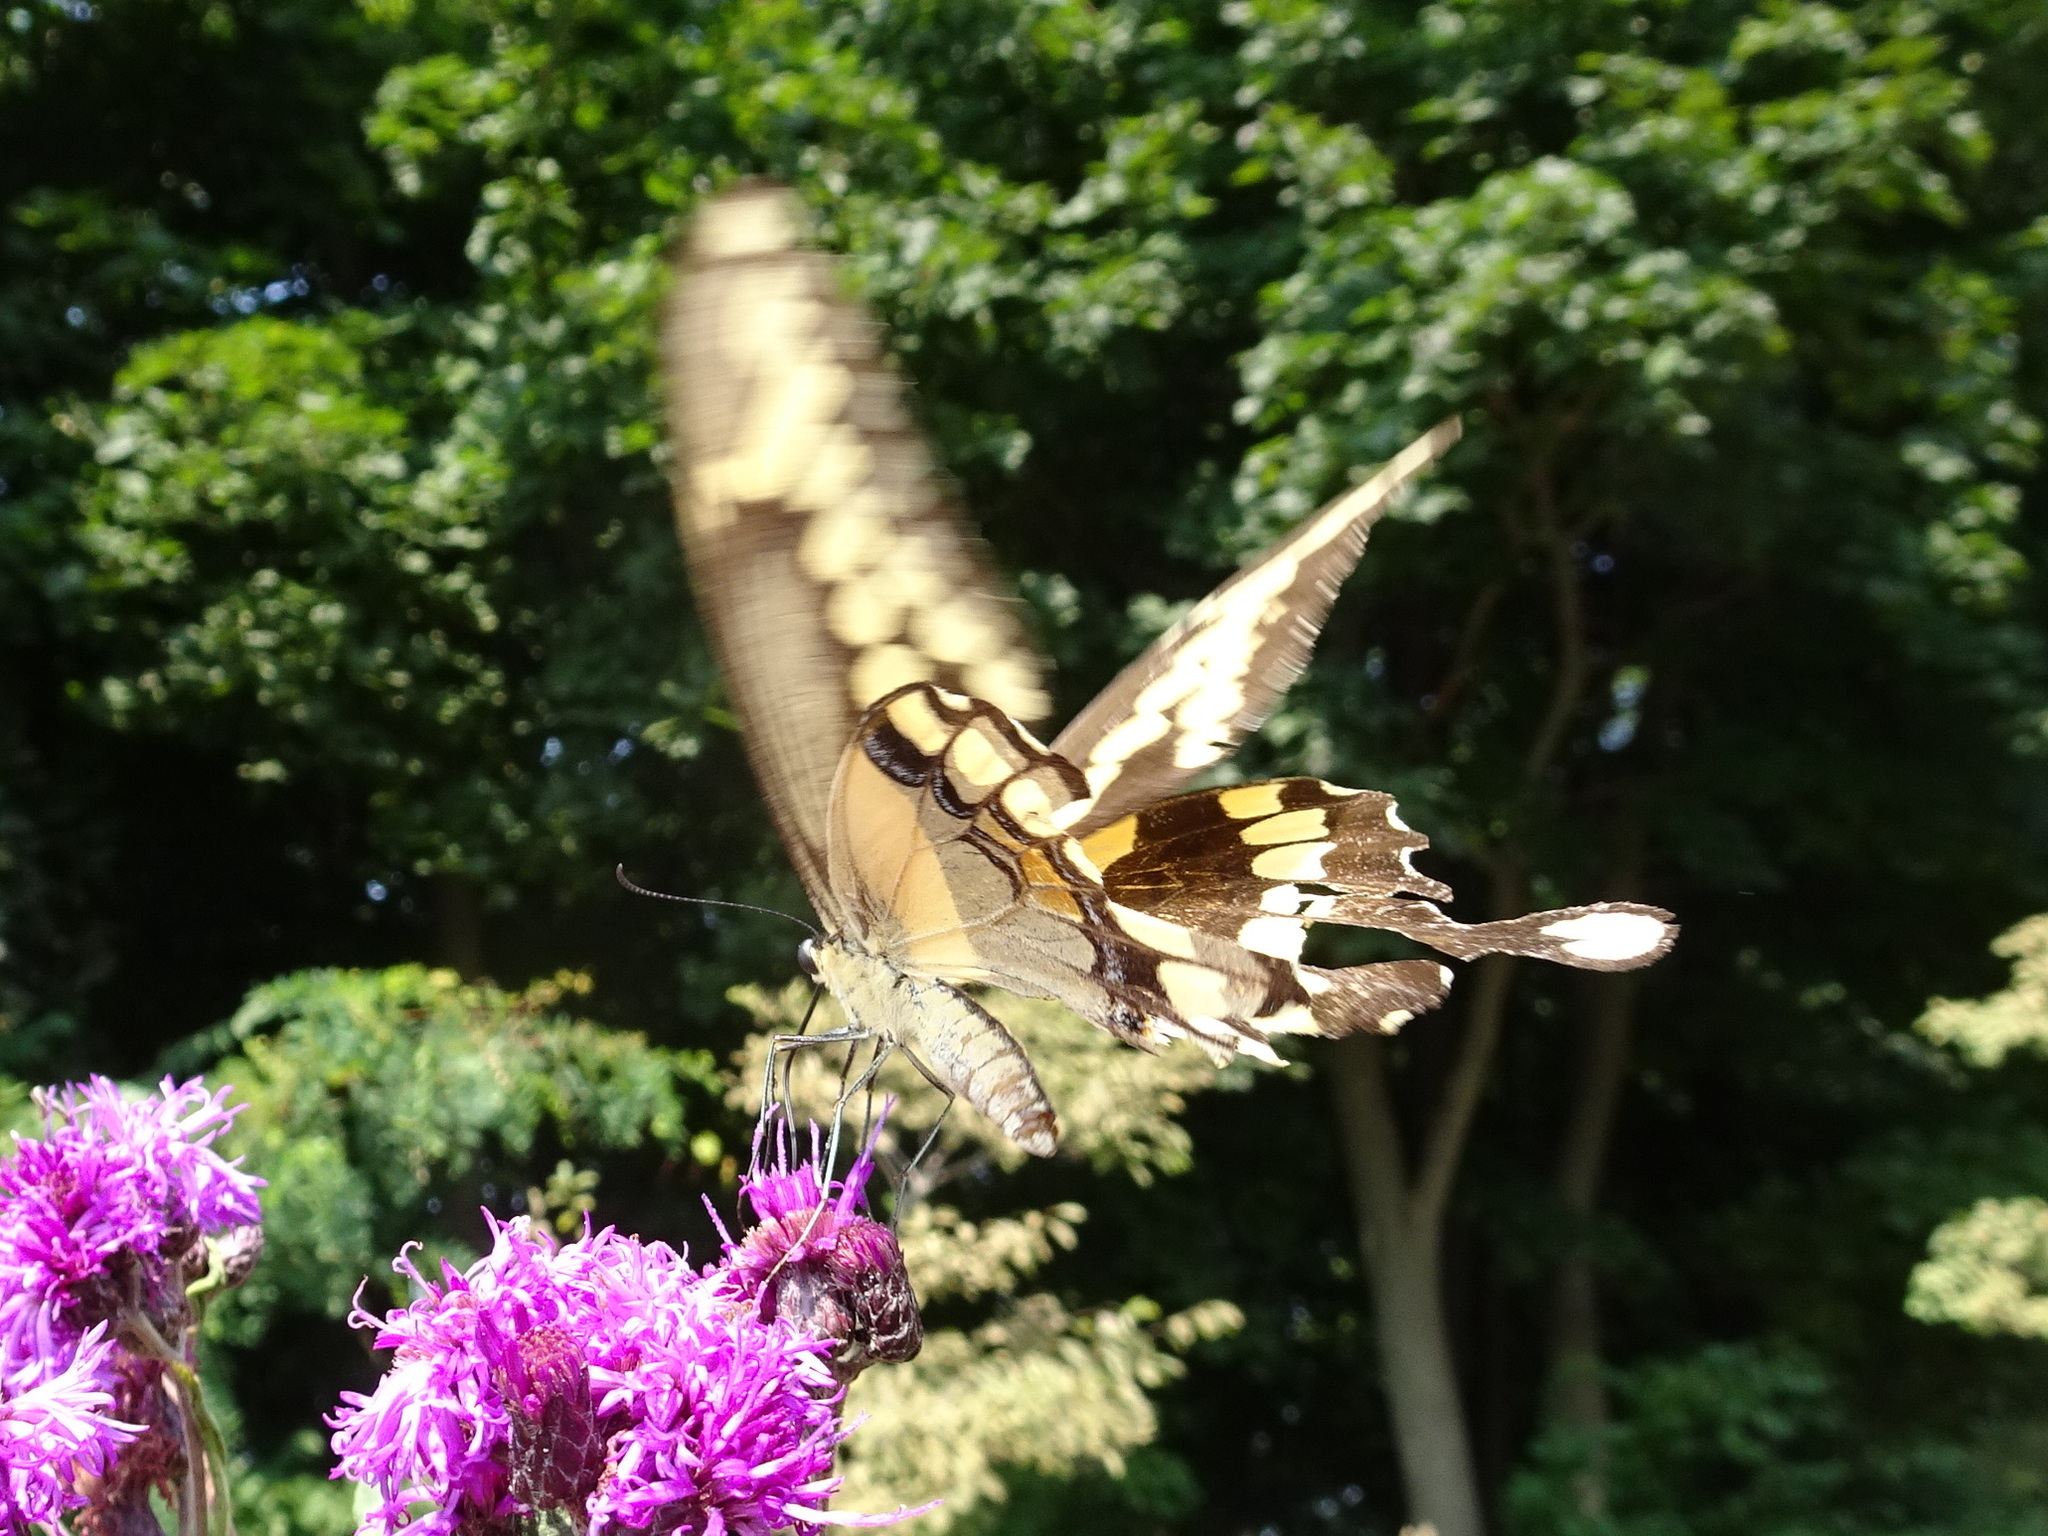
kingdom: Animalia
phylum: Arthropoda
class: Insecta
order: Lepidoptera
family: Papilionidae
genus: Papilio
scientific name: Papilio cresphontes
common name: Giant swallowtail
